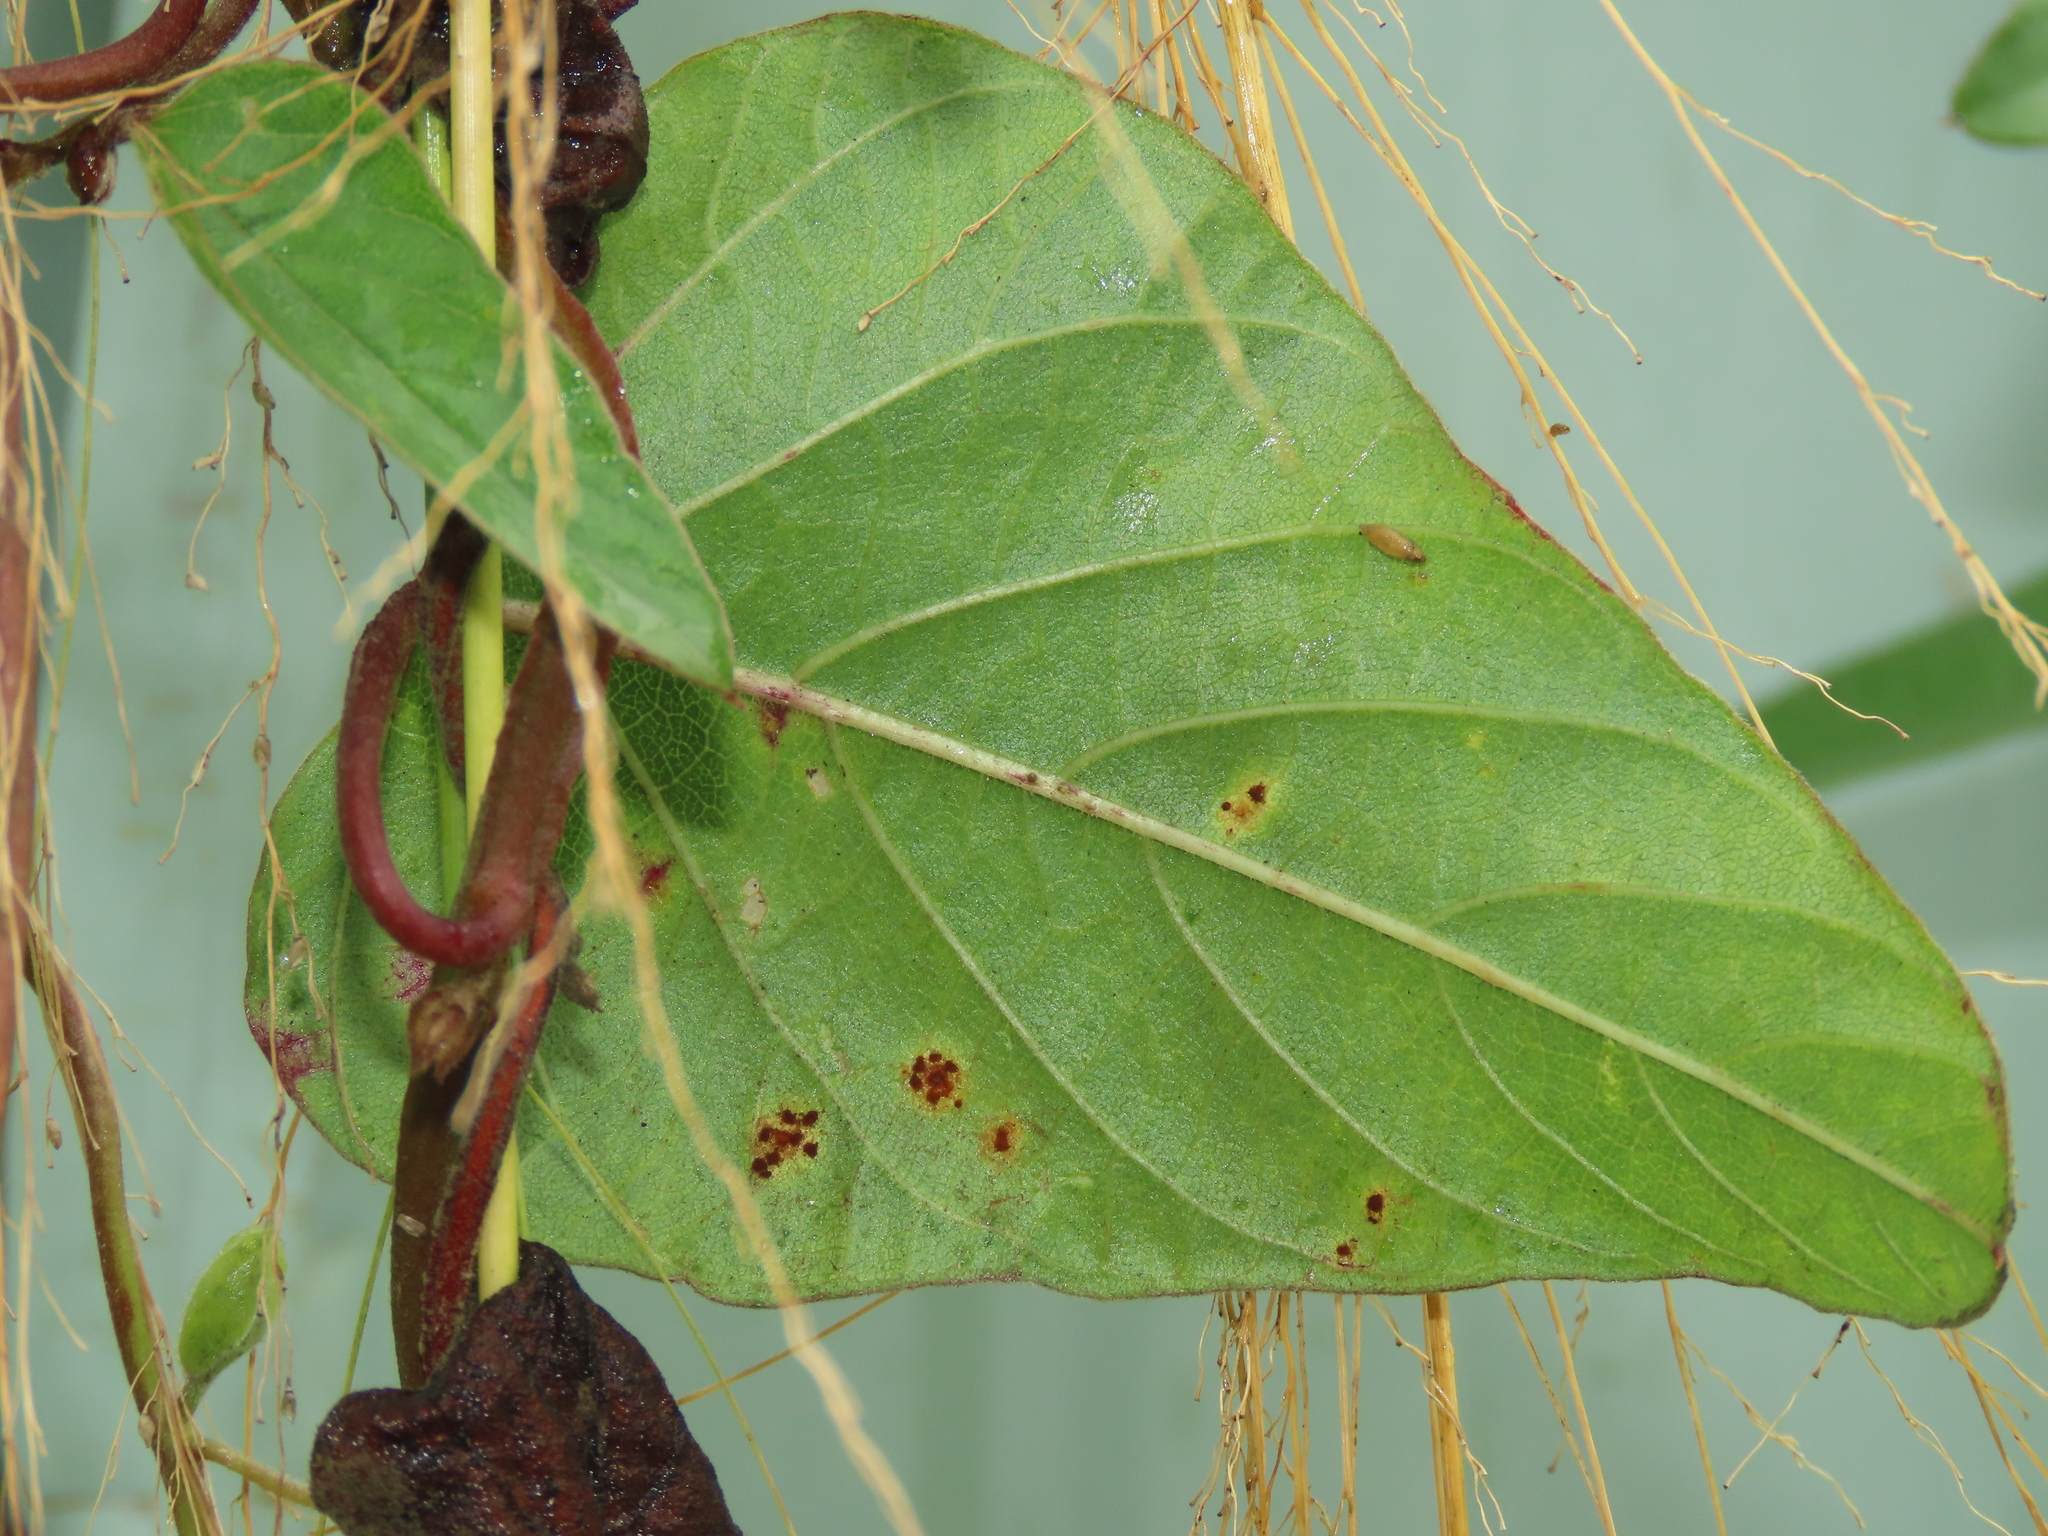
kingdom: Plantae
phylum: Tracheophyta
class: Magnoliopsida
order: Solanales
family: Convolvulaceae
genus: Operculina
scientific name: Operculina turpethum
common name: Transparent wood-rose
